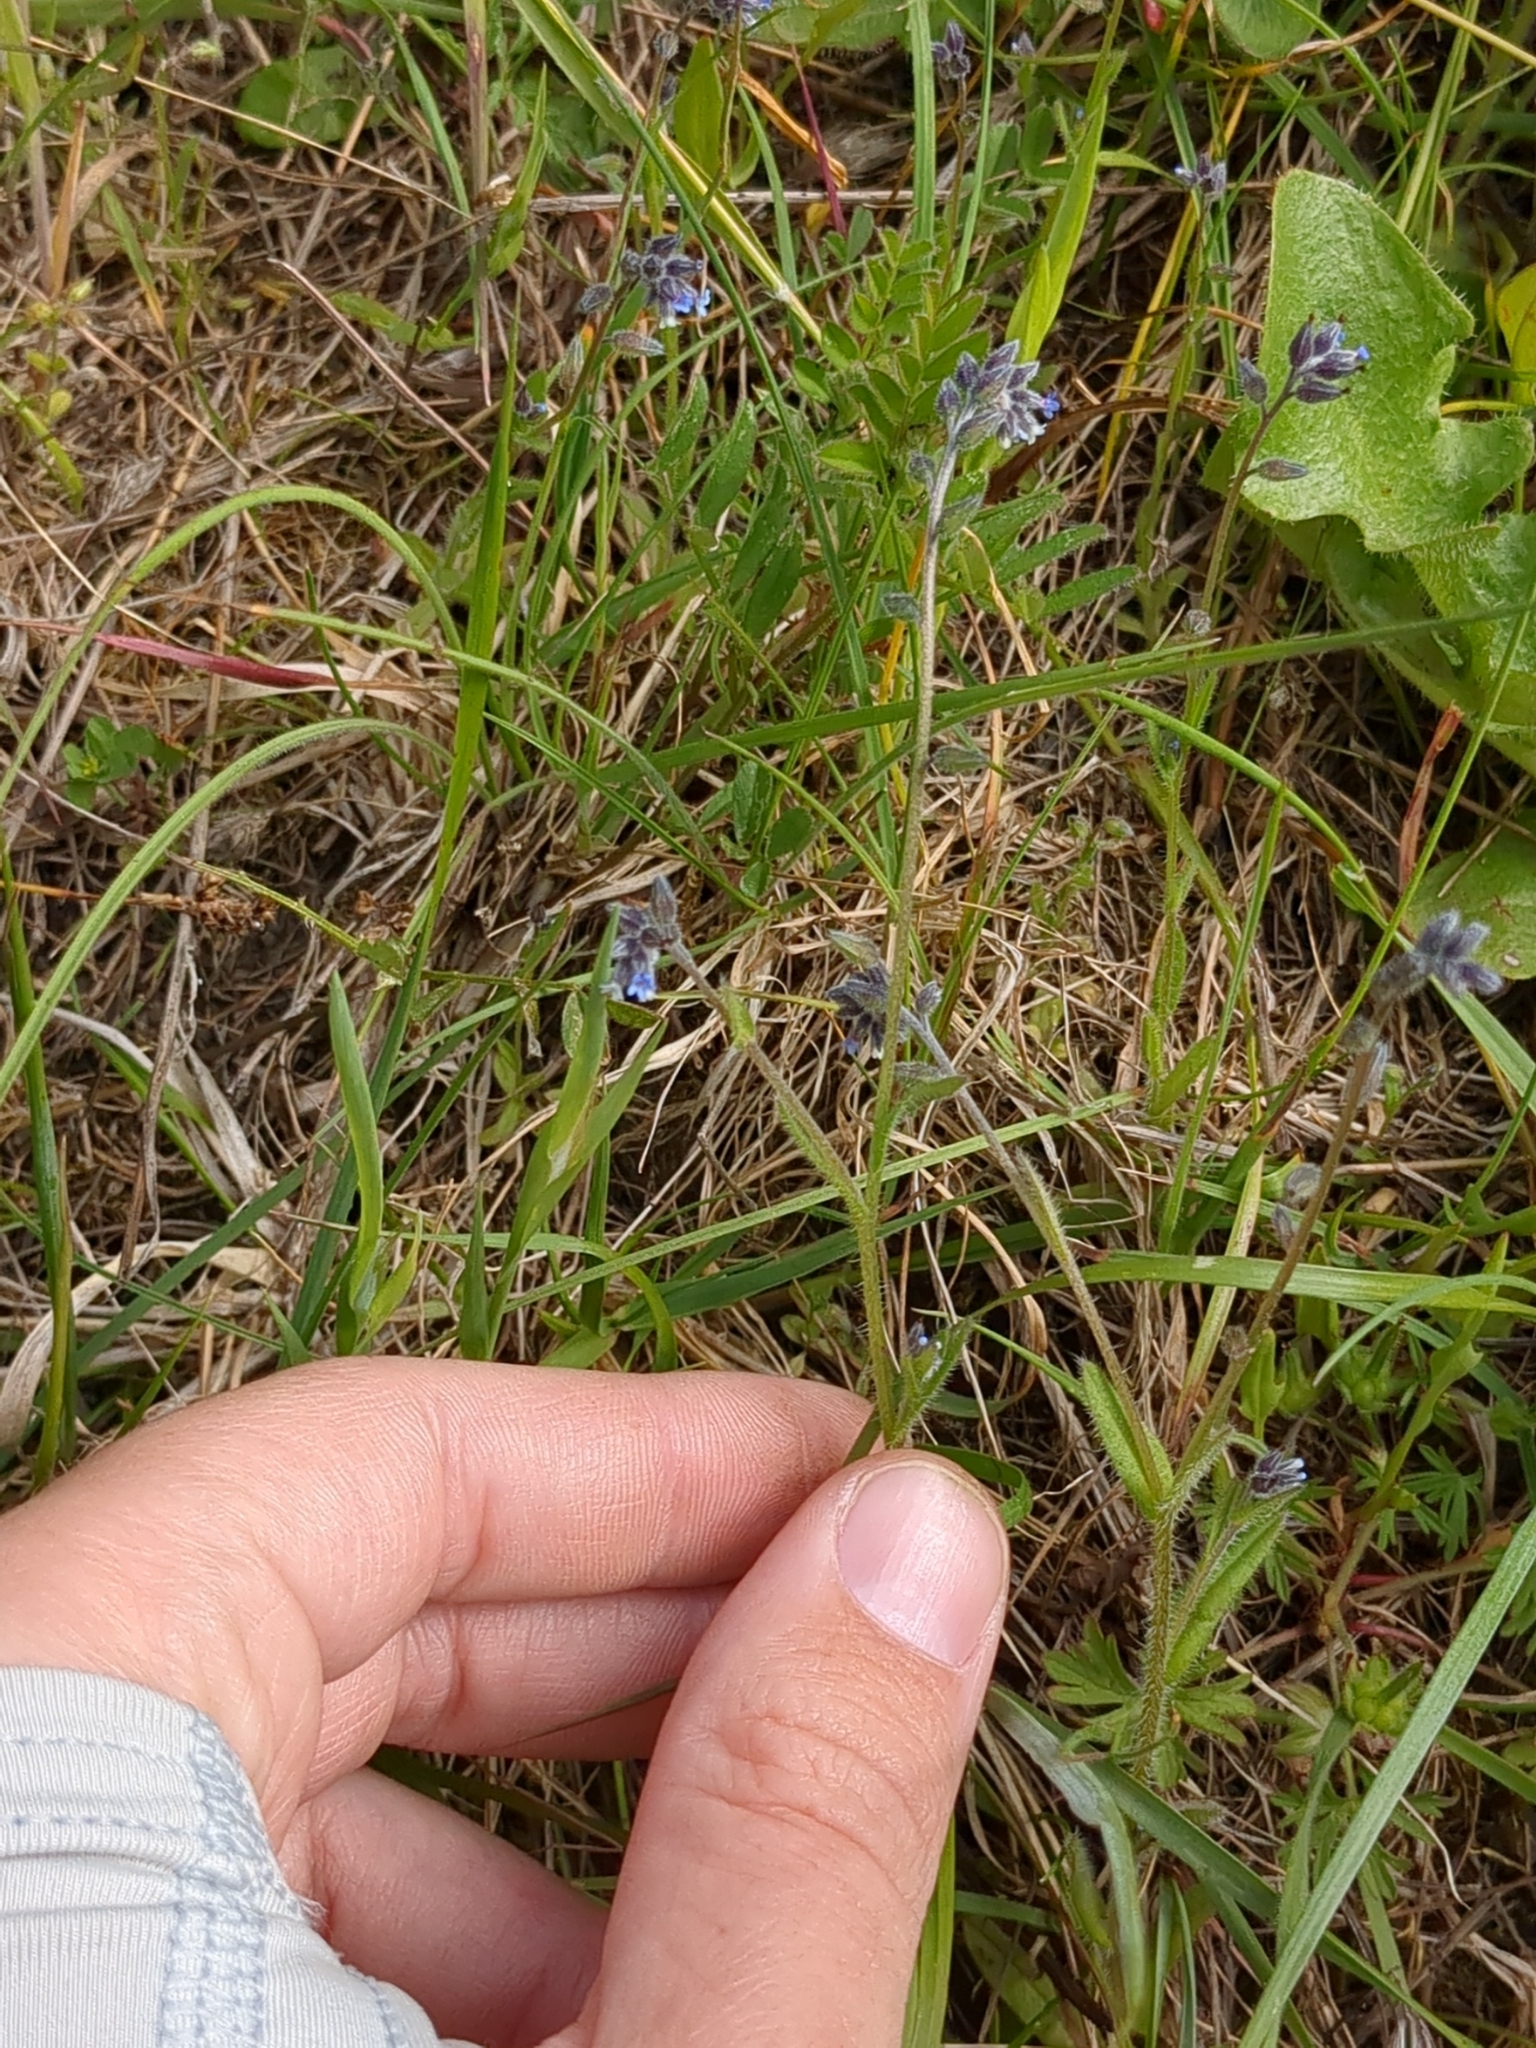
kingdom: Plantae
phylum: Tracheophyta
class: Magnoliopsida
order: Boraginales
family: Boraginaceae
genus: Myosotis
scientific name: Myosotis discolor
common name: Changing forget-me-not
